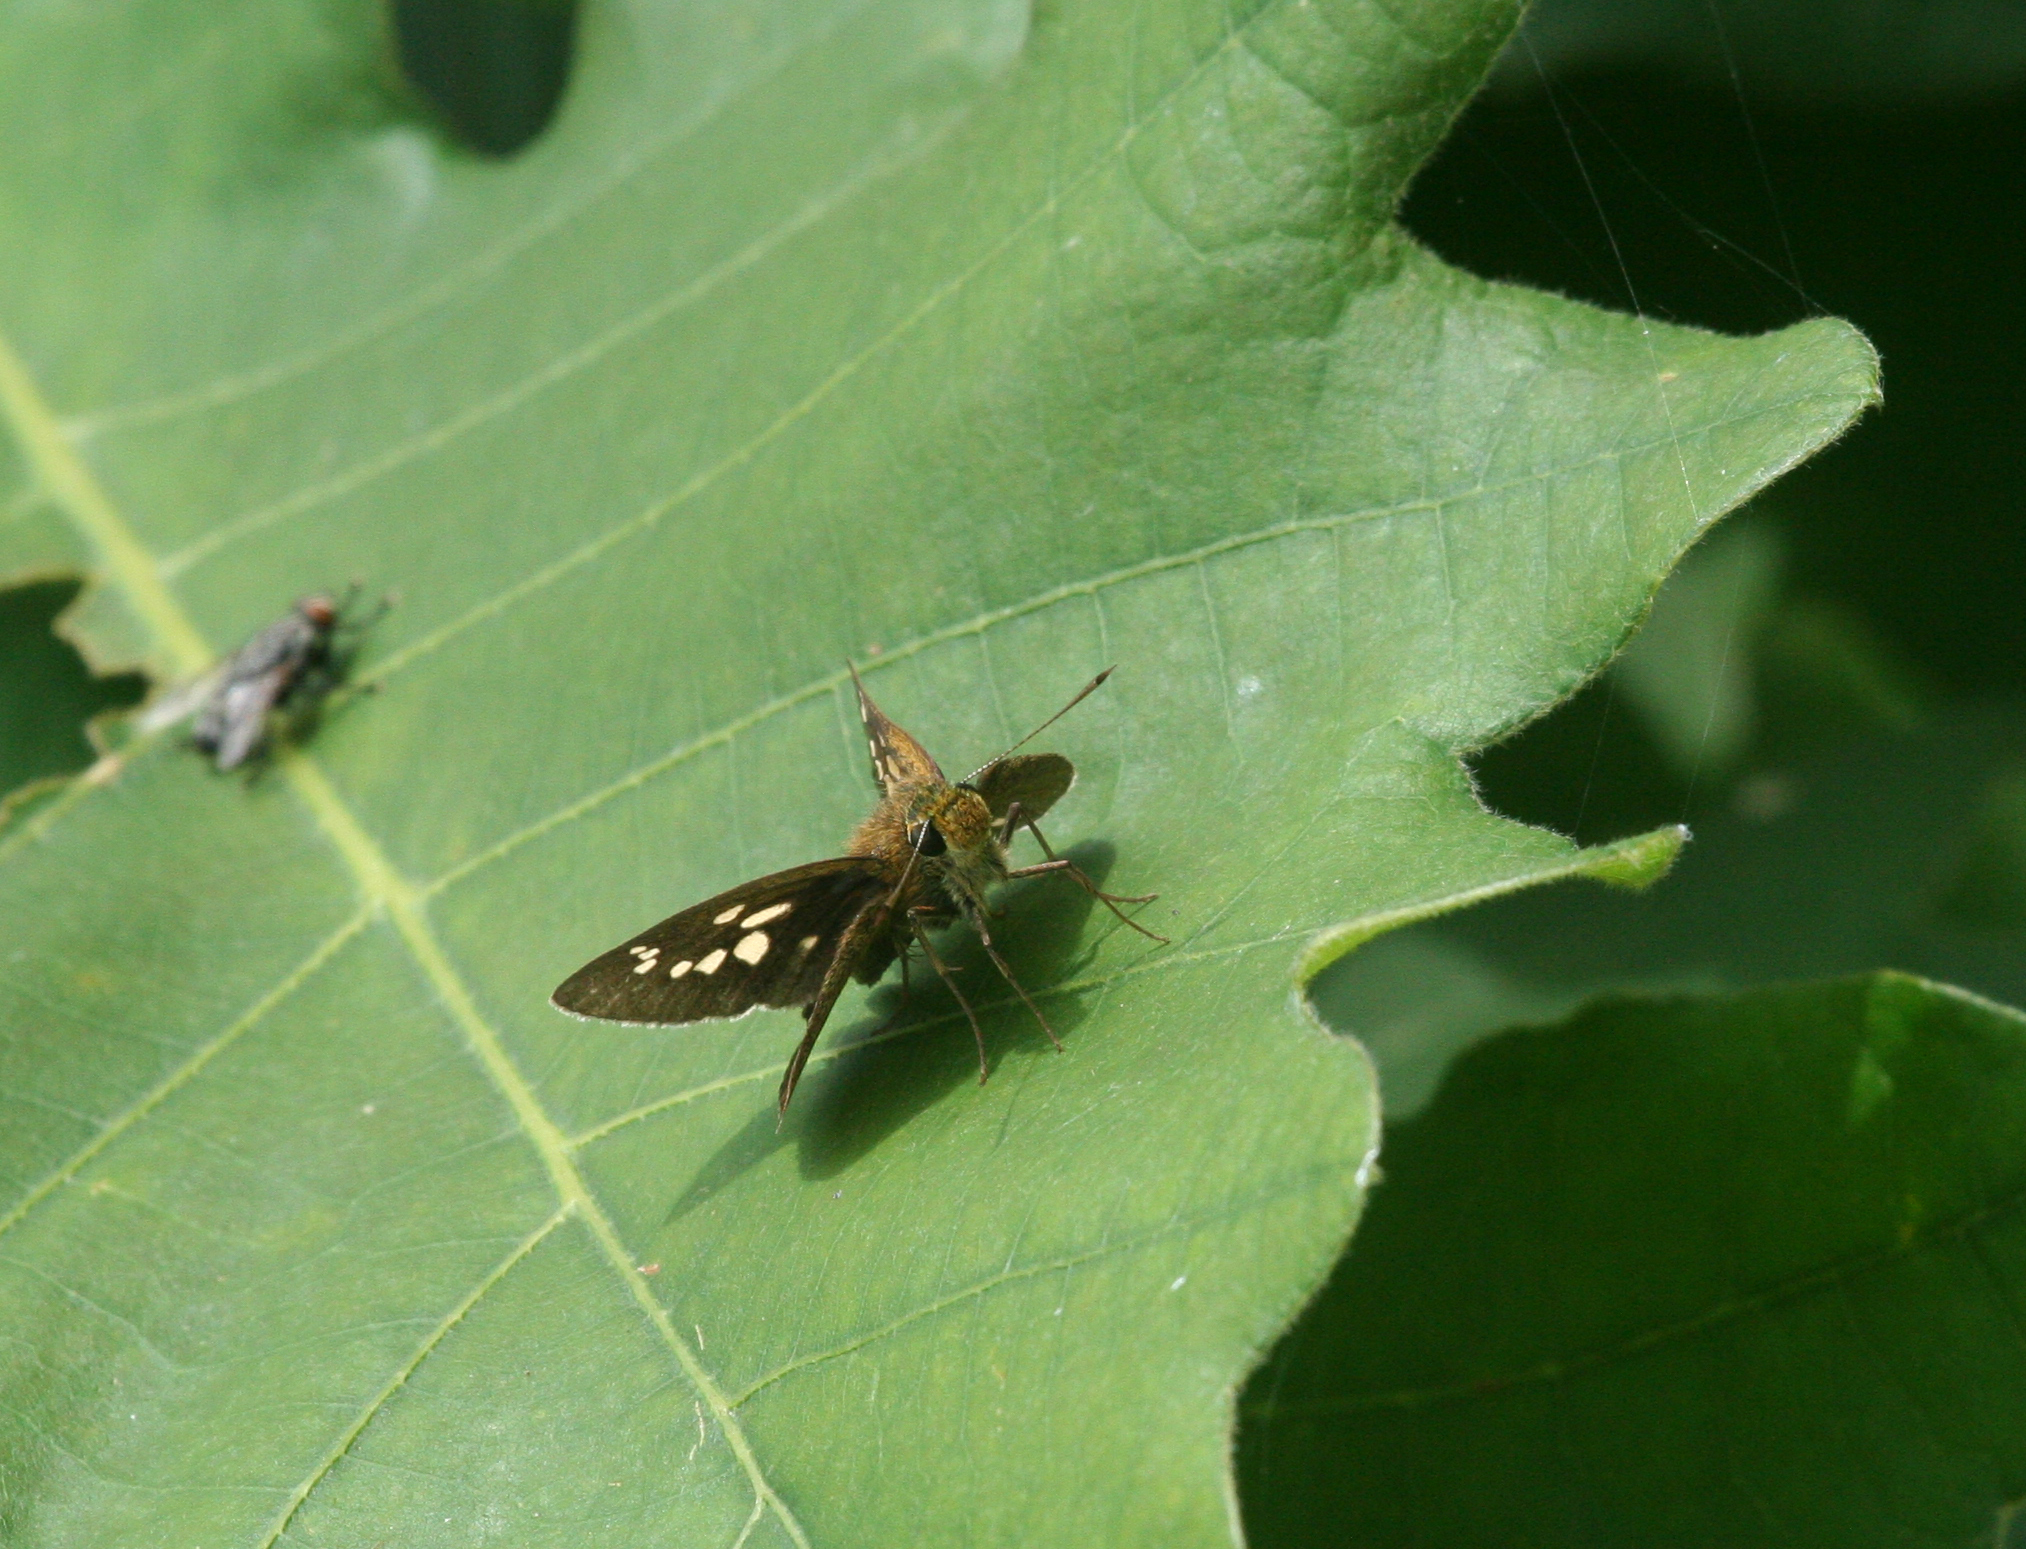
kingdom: Animalia
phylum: Arthropoda
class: Insecta
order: Lepidoptera
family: Hesperiidae
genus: Polytremis
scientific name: Polytremis zina
